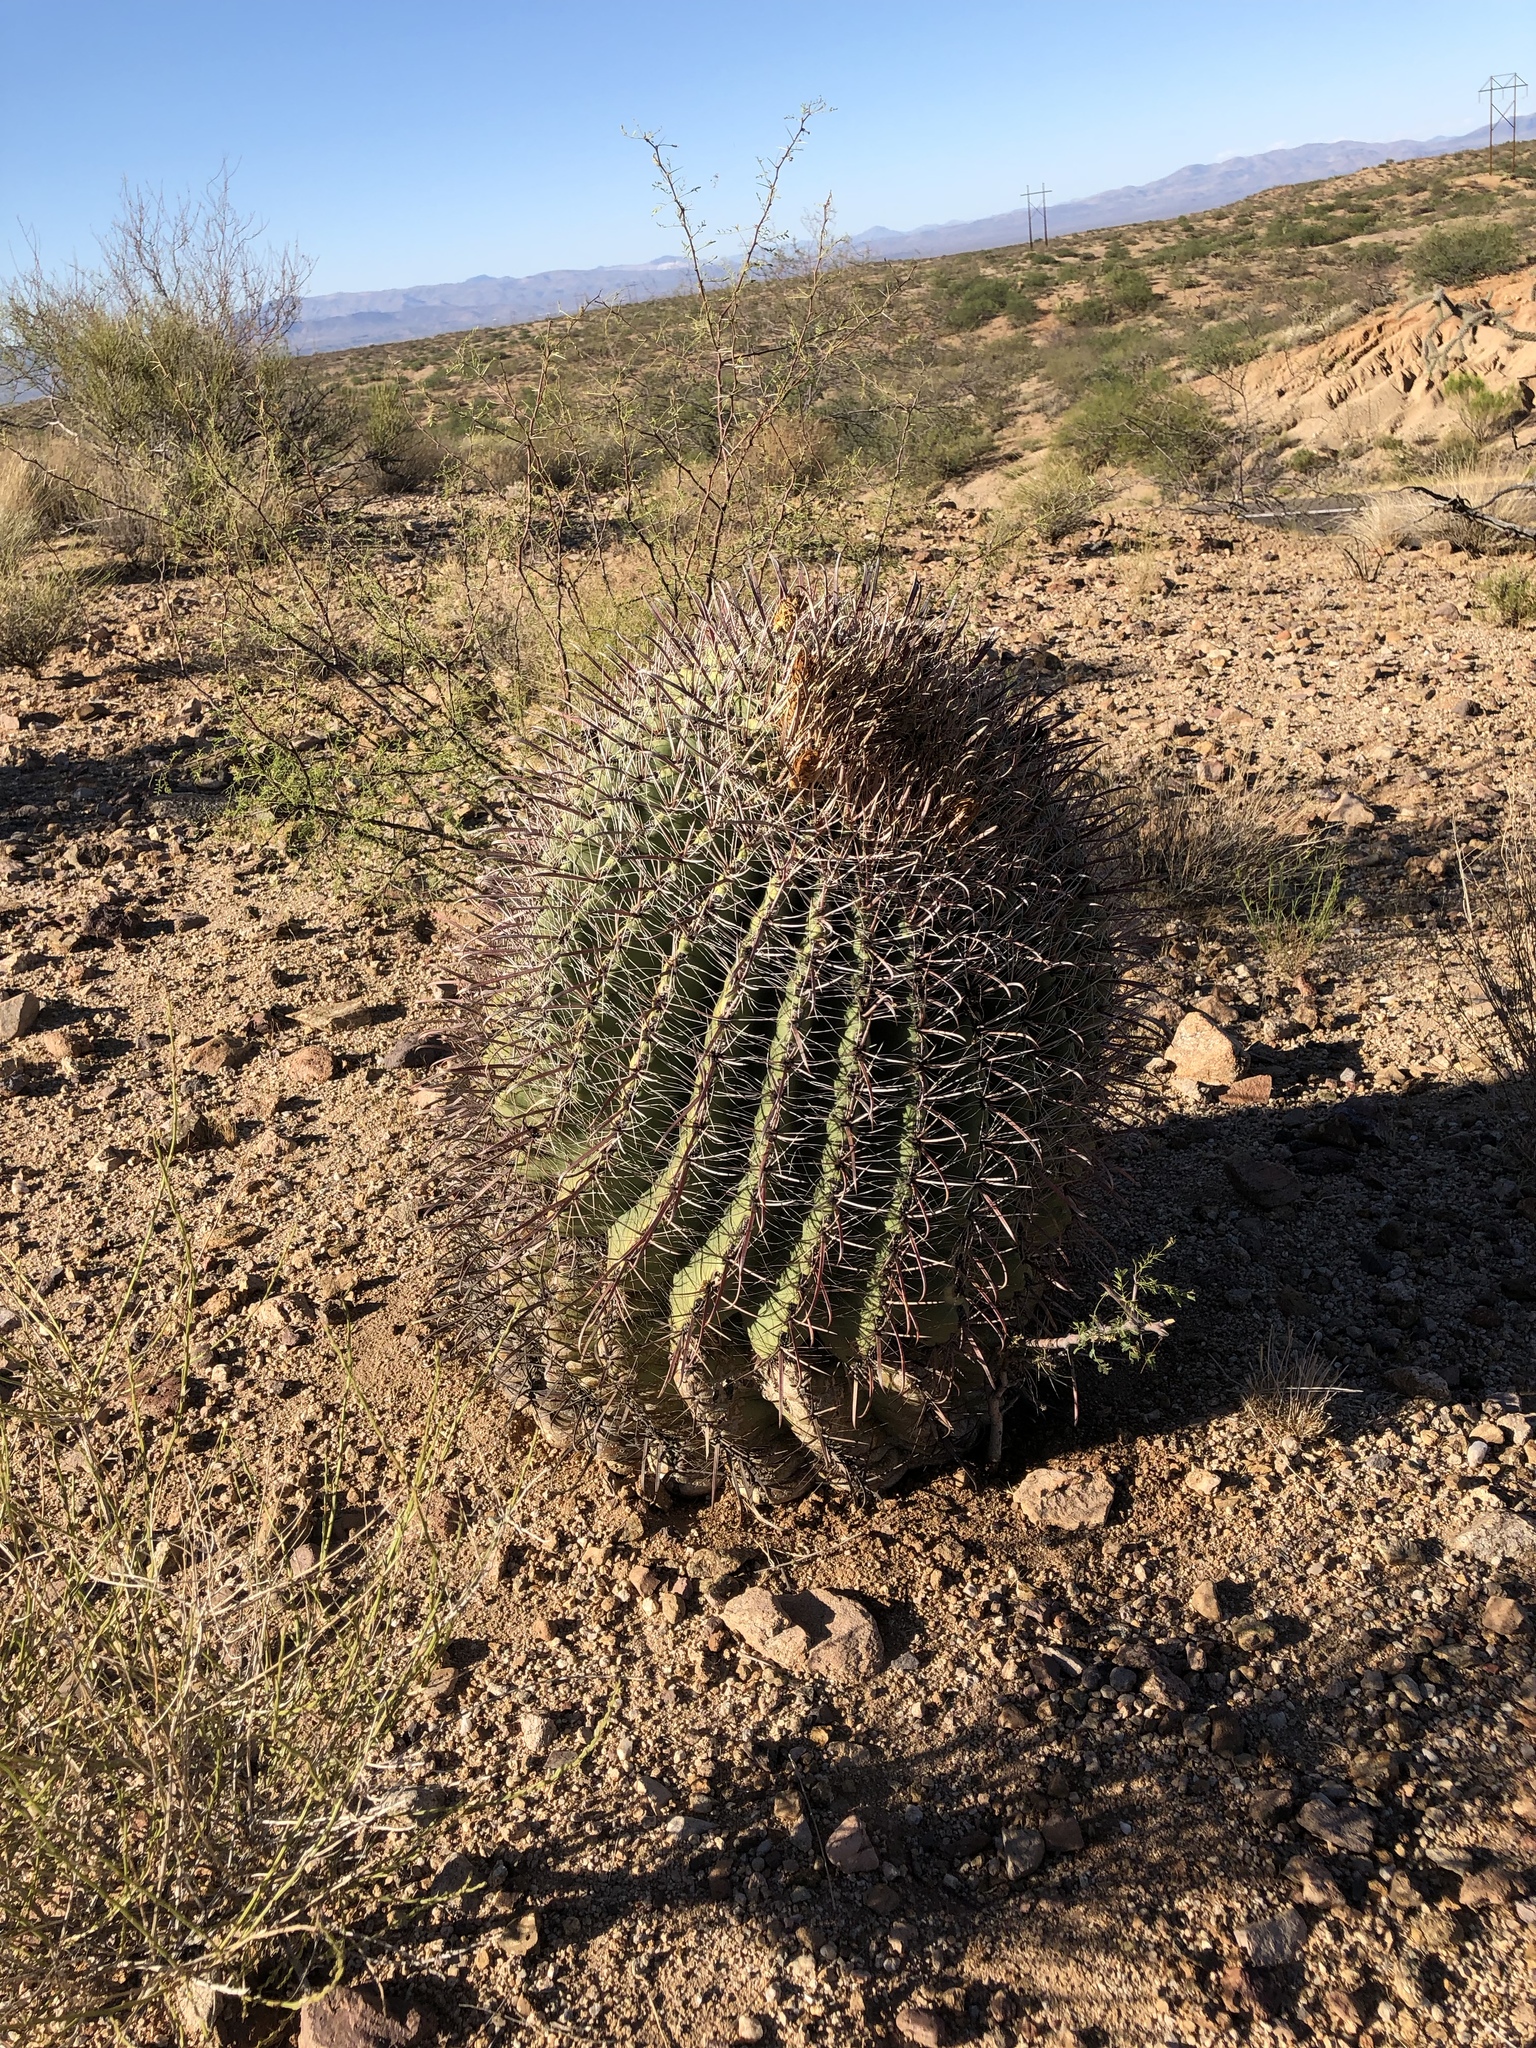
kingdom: Plantae
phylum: Tracheophyta
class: Magnoliopsida
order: Caryophyllales
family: Cactaceae
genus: Ferocactus
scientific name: Ferocactus wislizeni
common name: Candy barrel cactus
